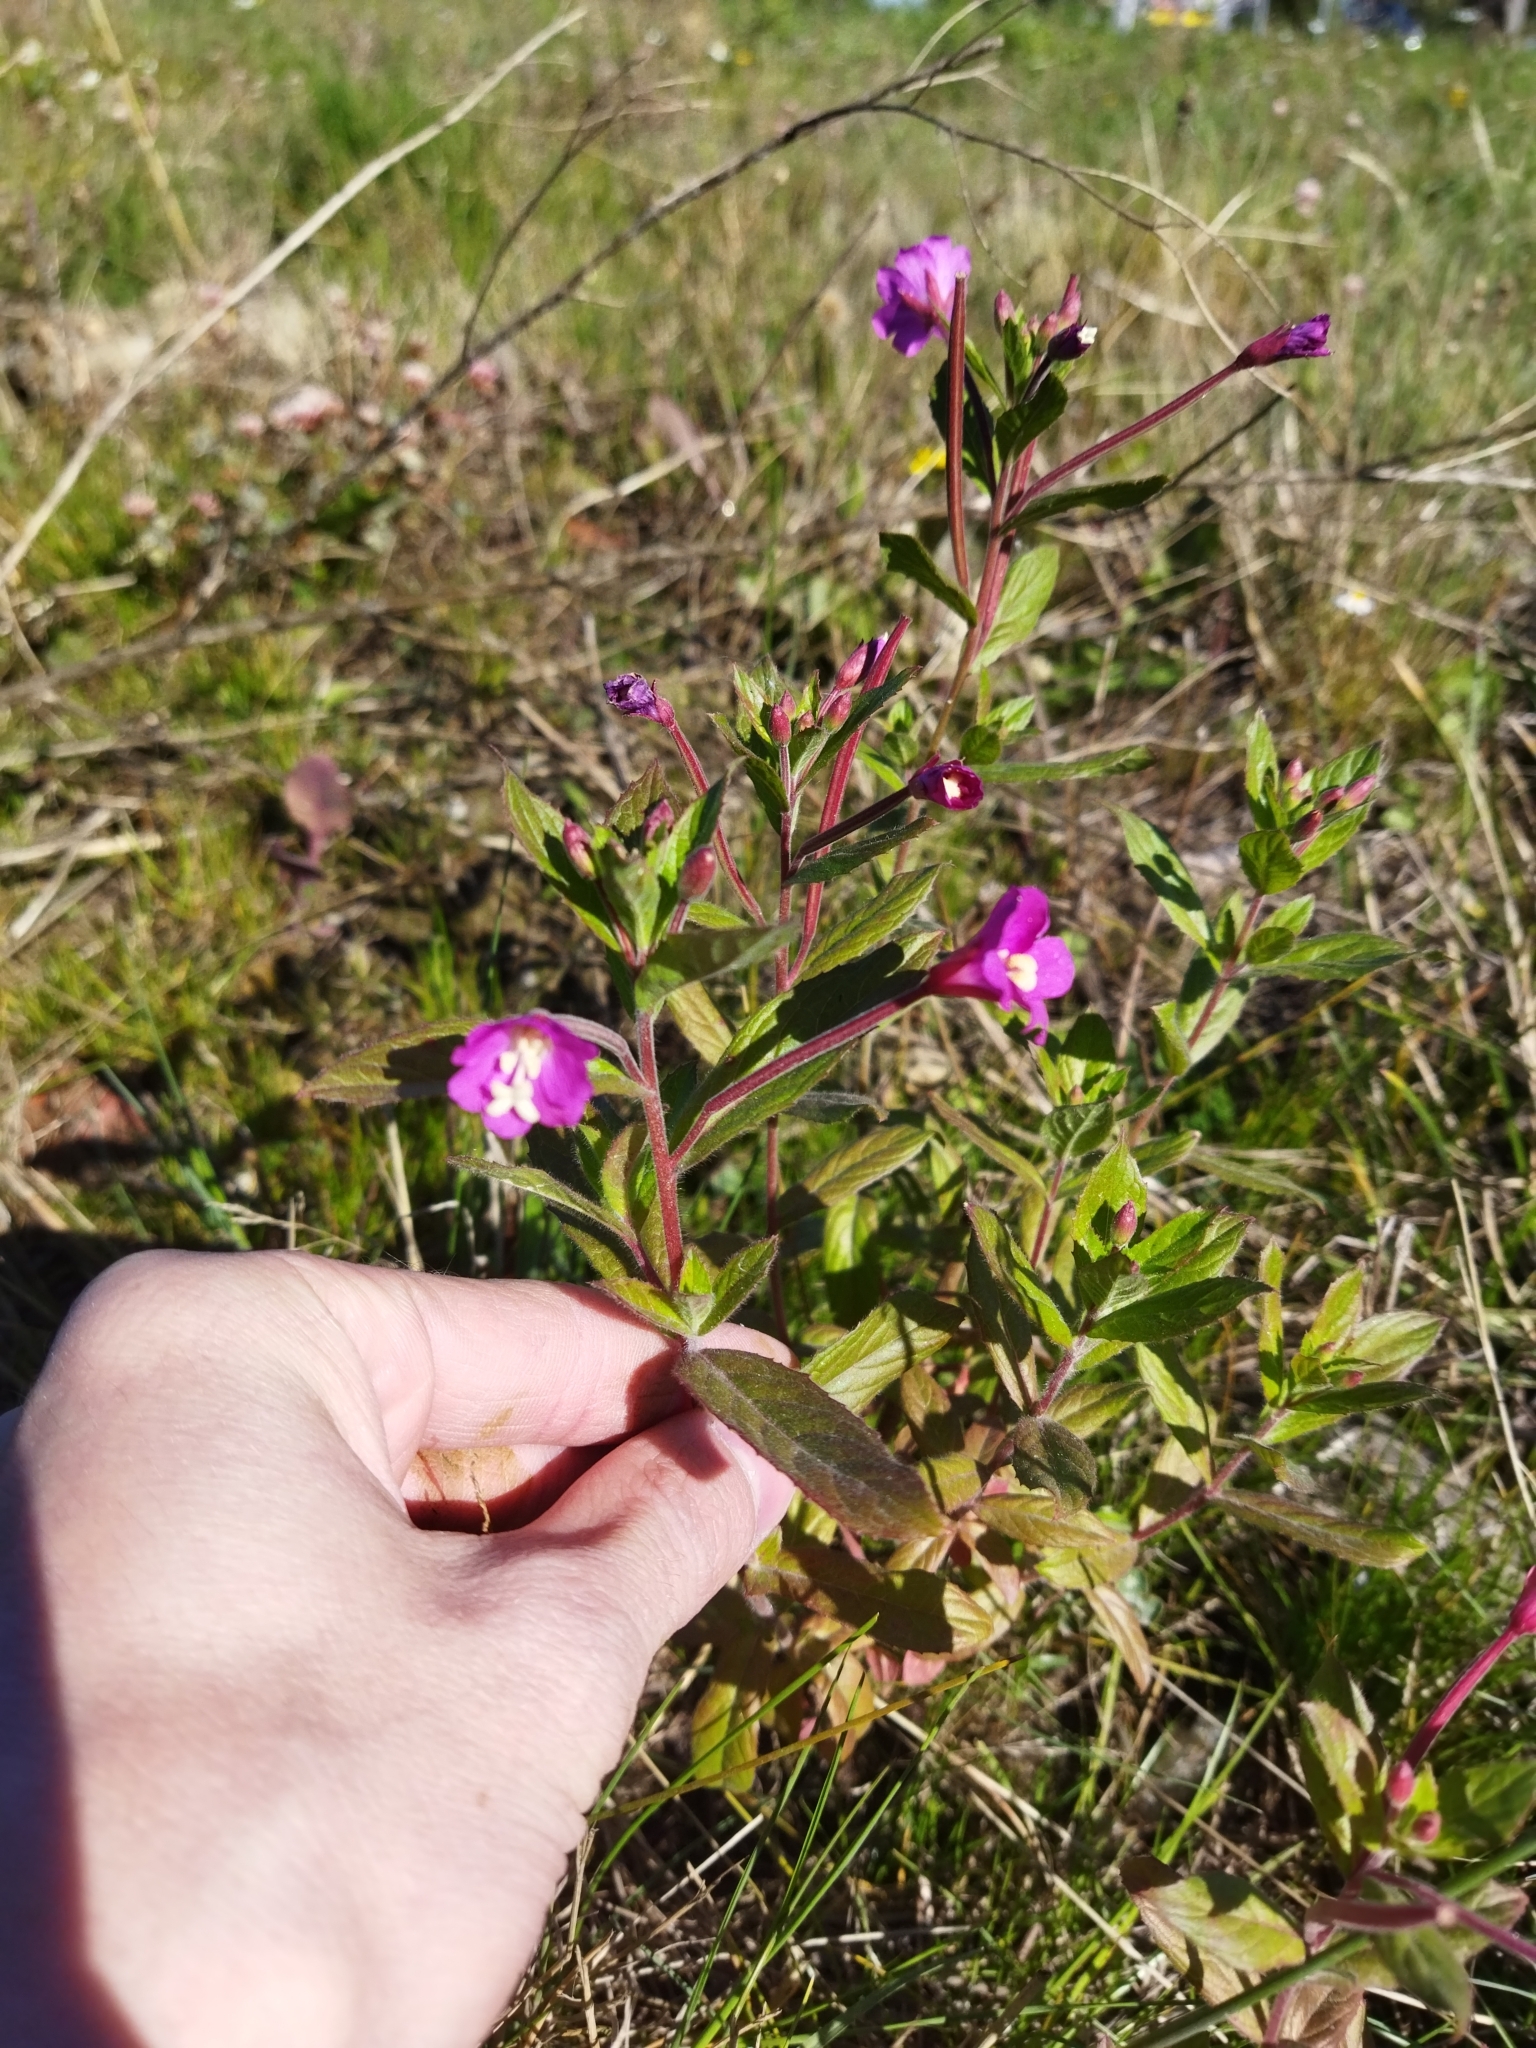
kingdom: Plantae
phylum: Tracheophyta
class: Magnoliopsida
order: Myrtales
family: Onagraceae
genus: Epilobium
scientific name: Epilobium hirsutum
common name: Great willowherb
